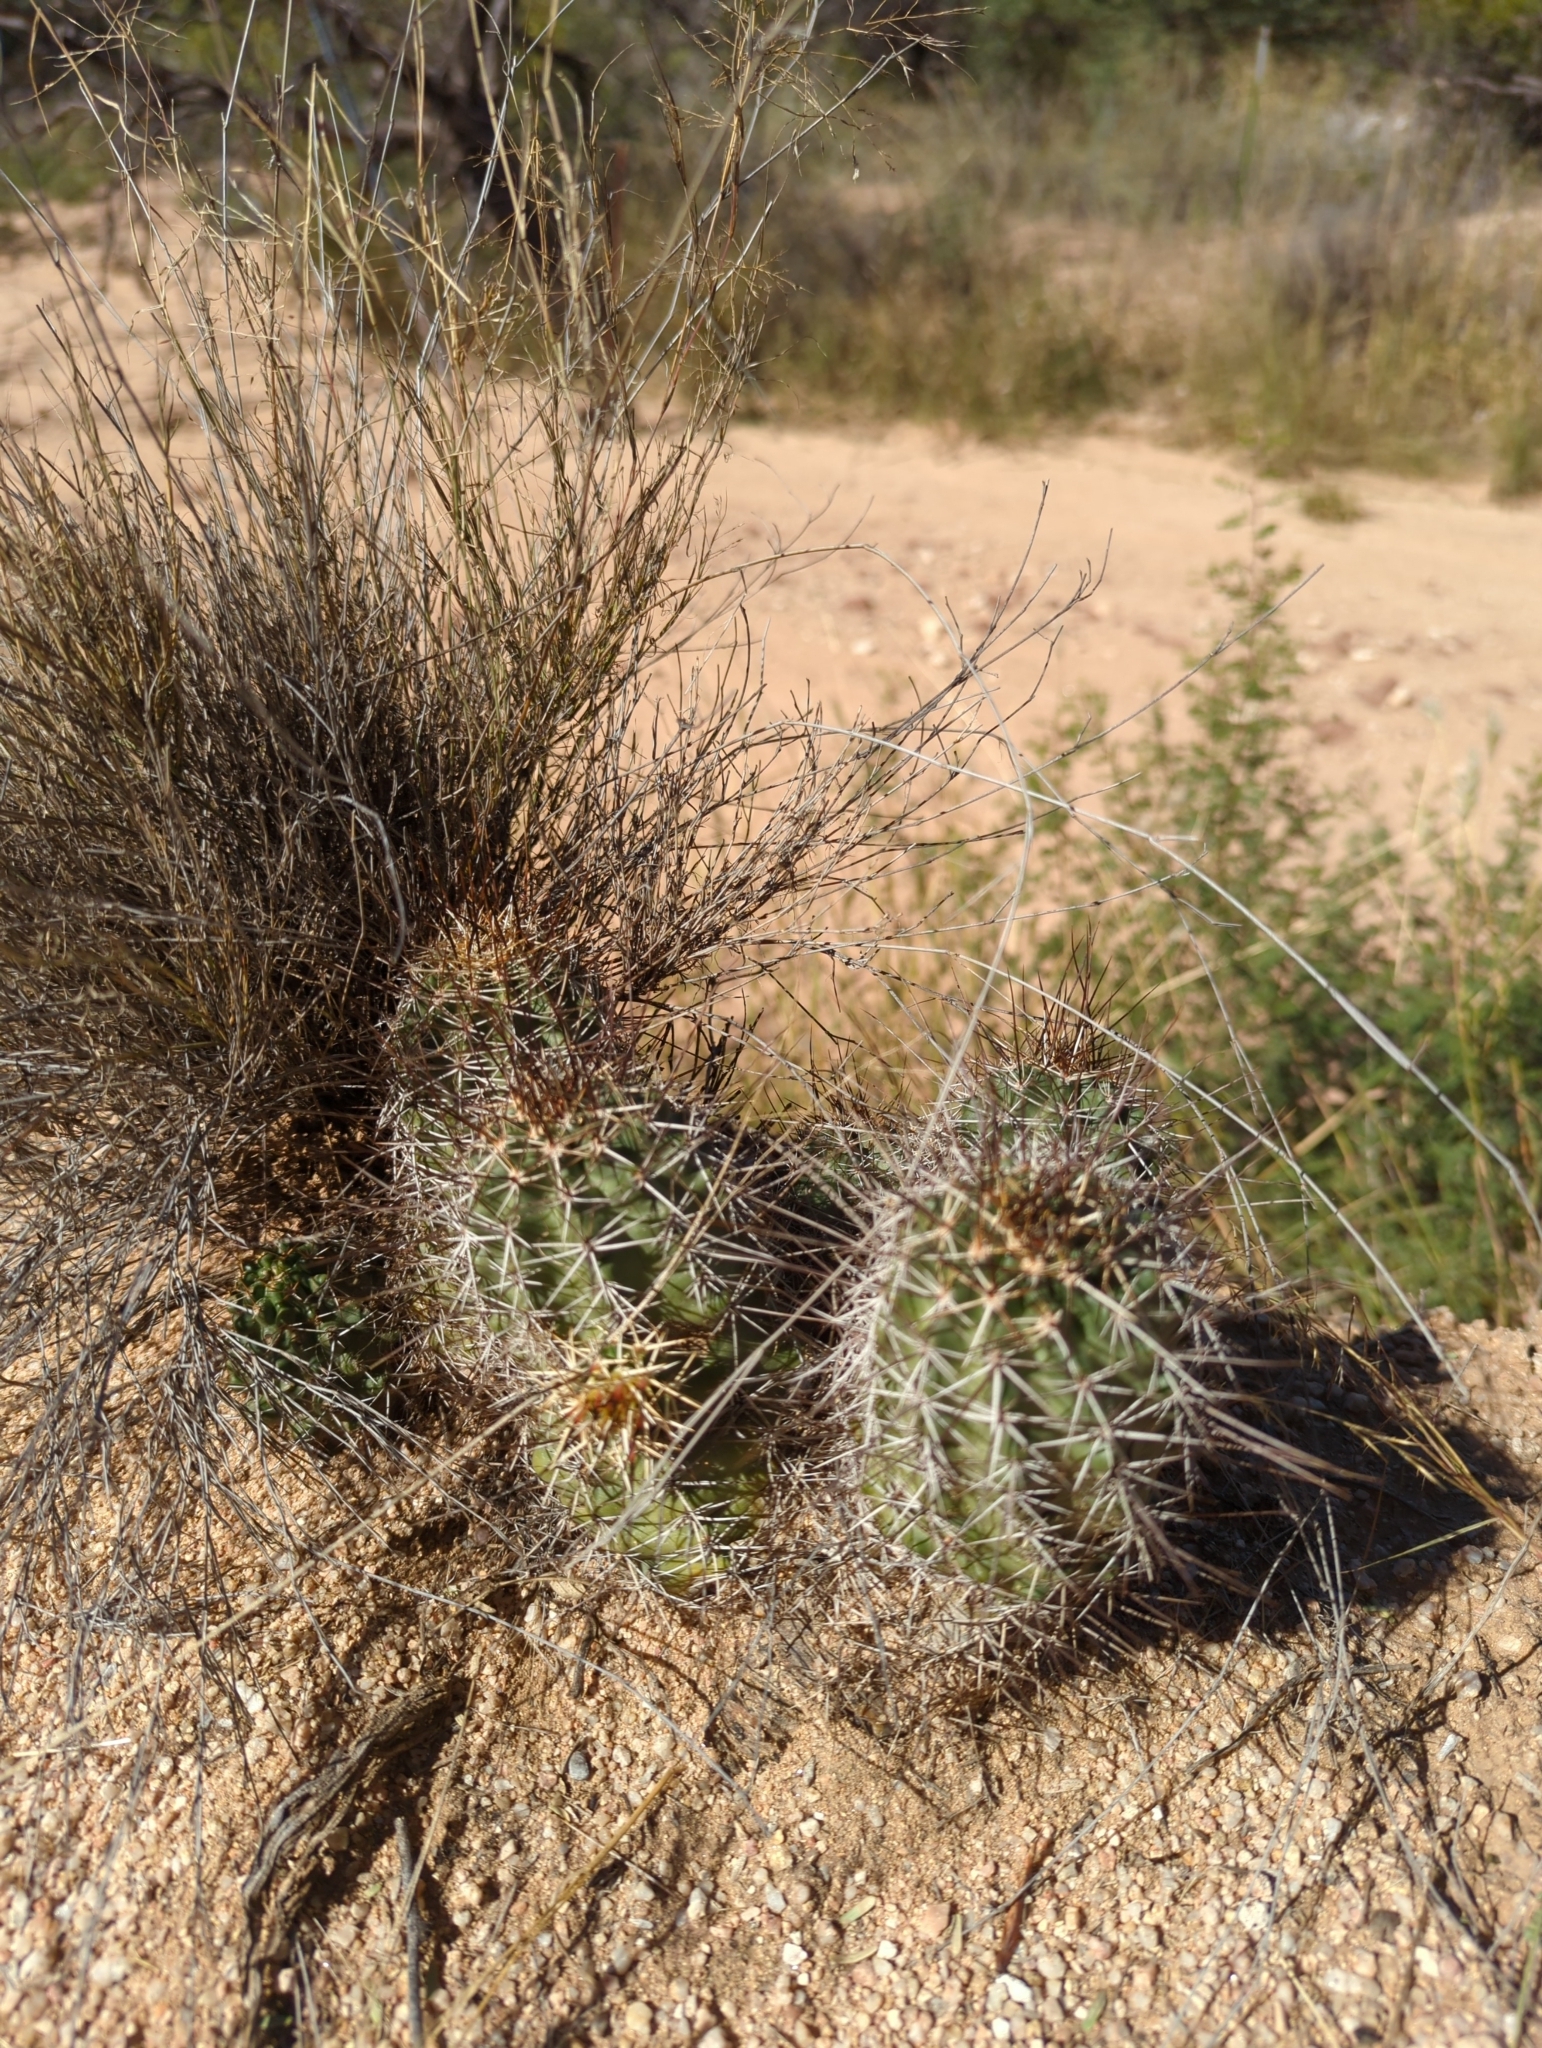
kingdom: Plantae
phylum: Tracheophyta
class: Magnoliopsida
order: Caryophyllales
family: Cactaceae
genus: Echinocereus
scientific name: Echinocereus fasciculatus
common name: Bundle hedgehog
